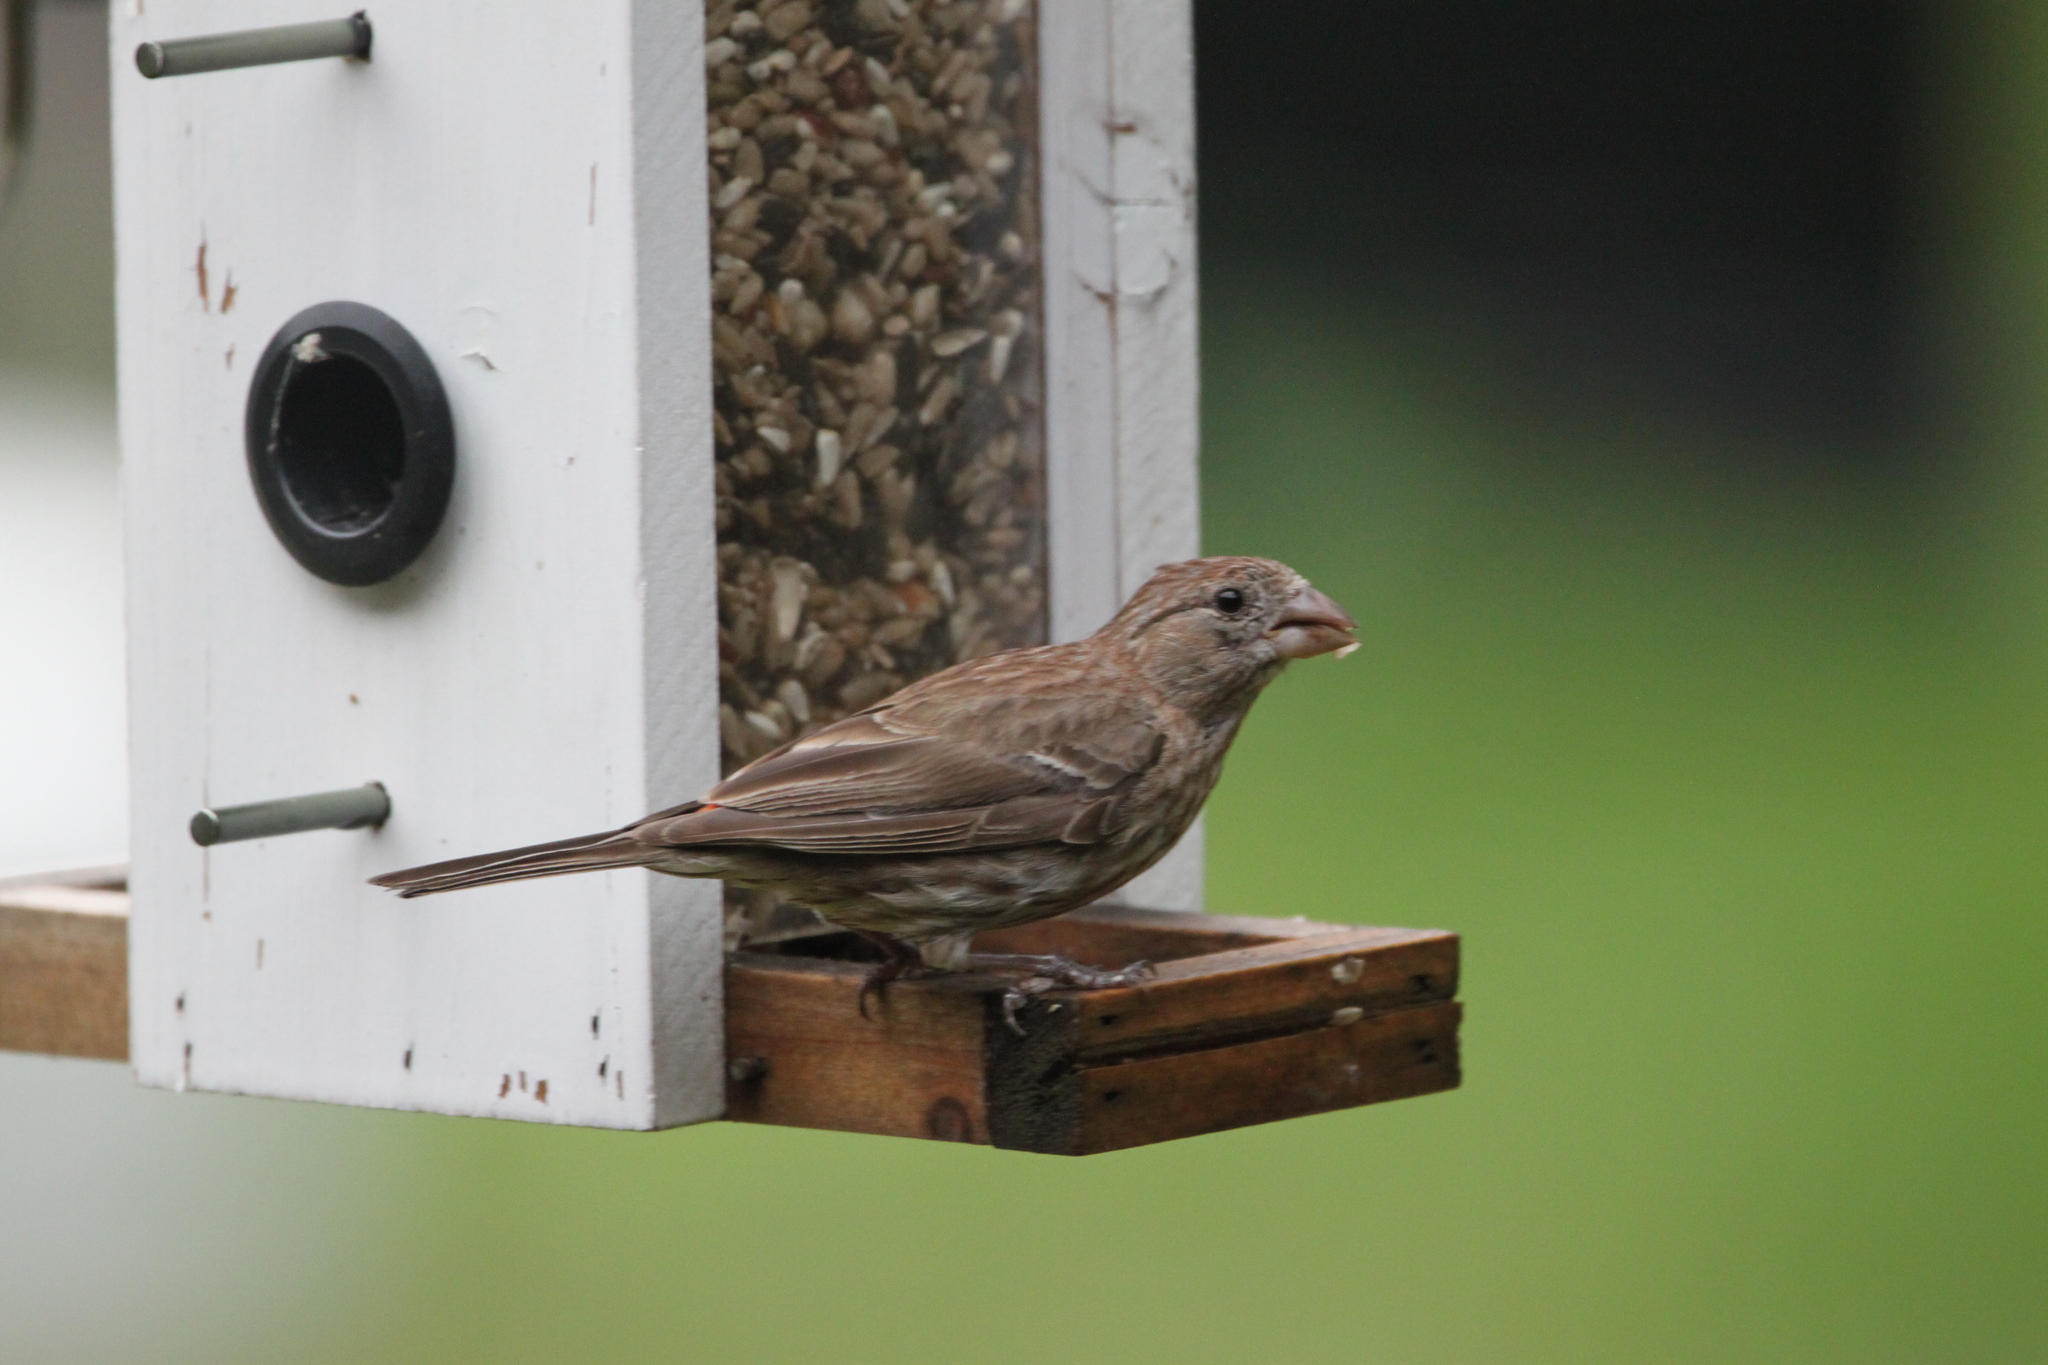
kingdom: Animalia
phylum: Chordata
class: Aves
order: Passeriformes
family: Fringillidae
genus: Haemorhous
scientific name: Haemorhous mexicanus
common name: House finch
